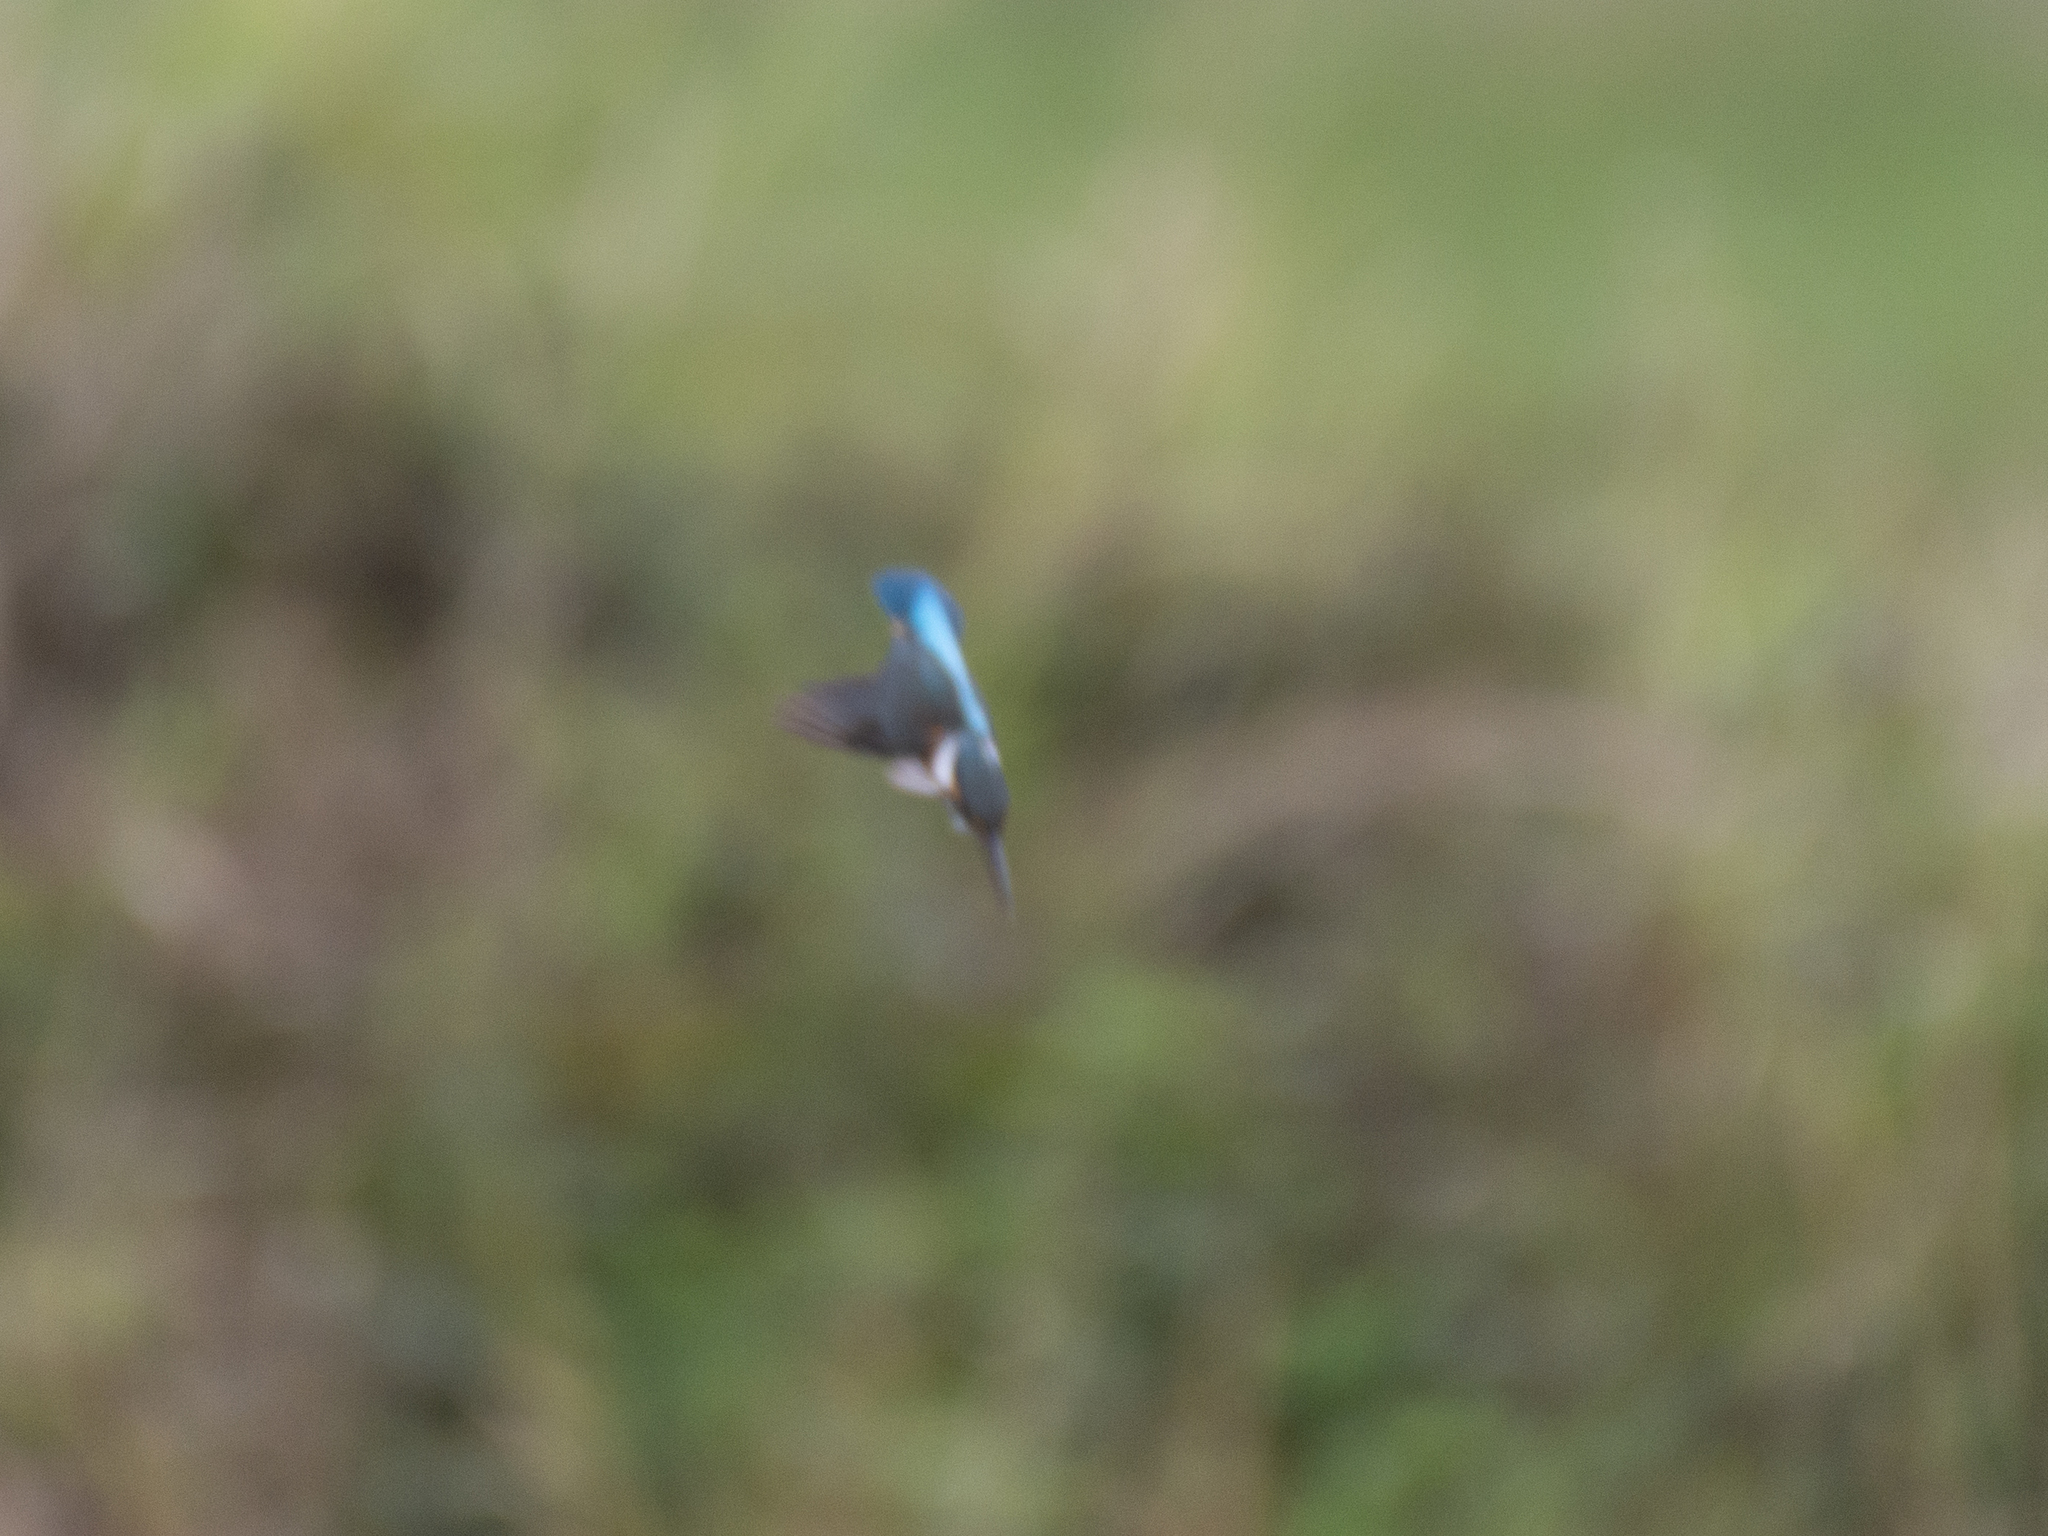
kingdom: Animalia
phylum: Chordata
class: Aves
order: Coraciiformes
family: Alcedinidae
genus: Alcedo
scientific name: Alcedo atthis
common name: Common kingfisher
